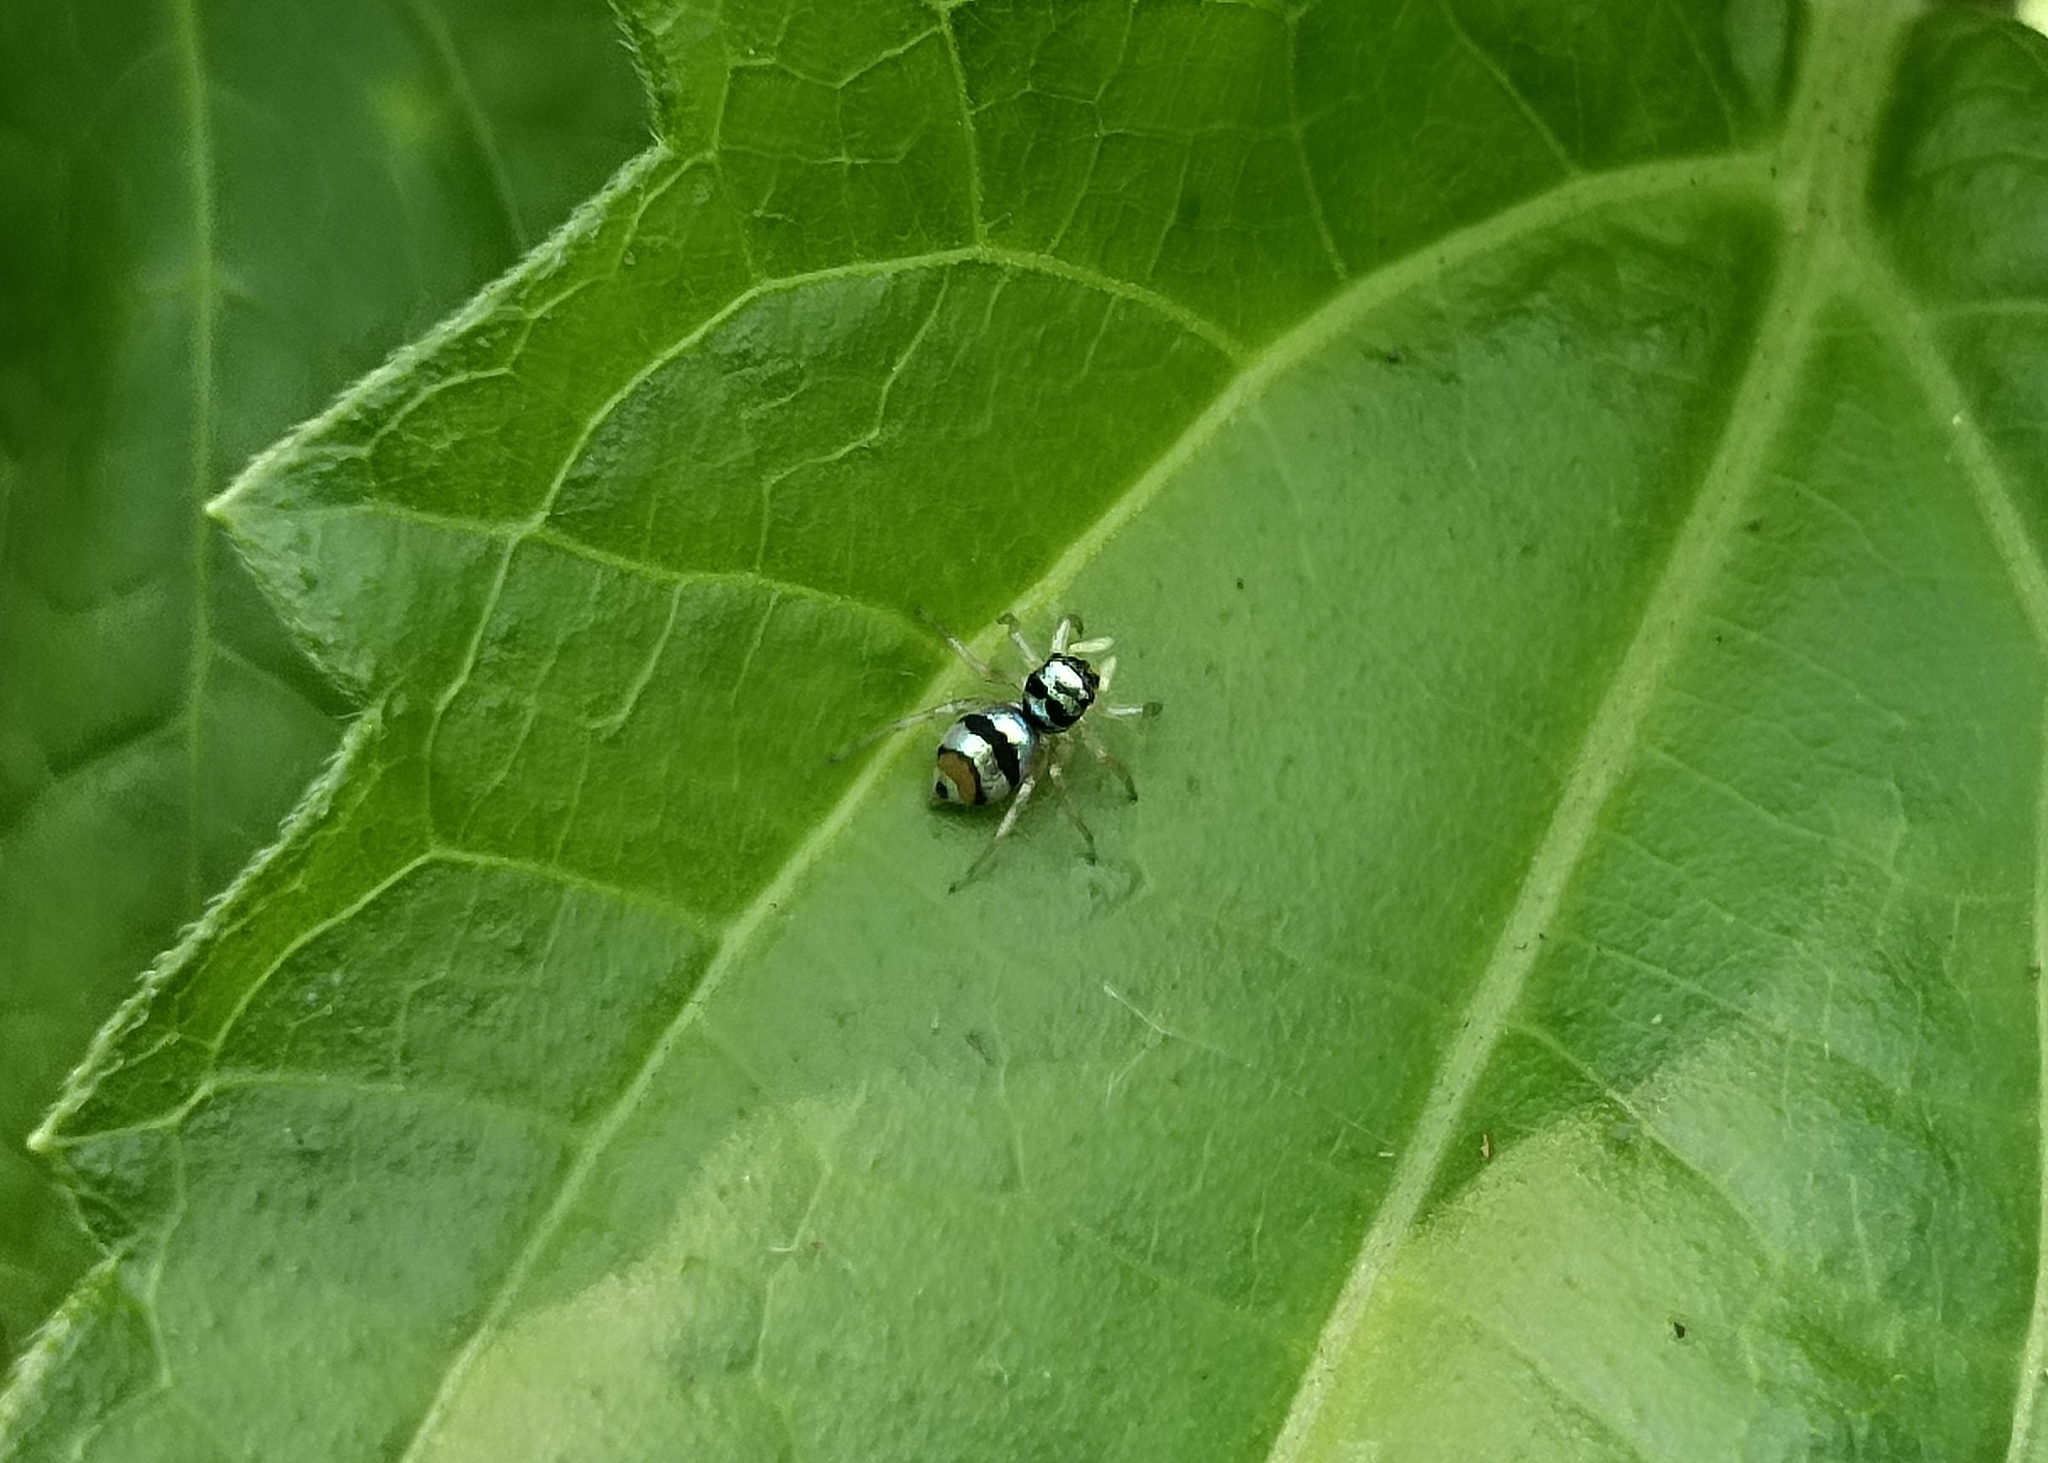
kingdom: Animalia
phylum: Arthropoda
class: Arachnida
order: Araneae
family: Salticidae
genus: Phintella
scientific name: Phintella vittata
